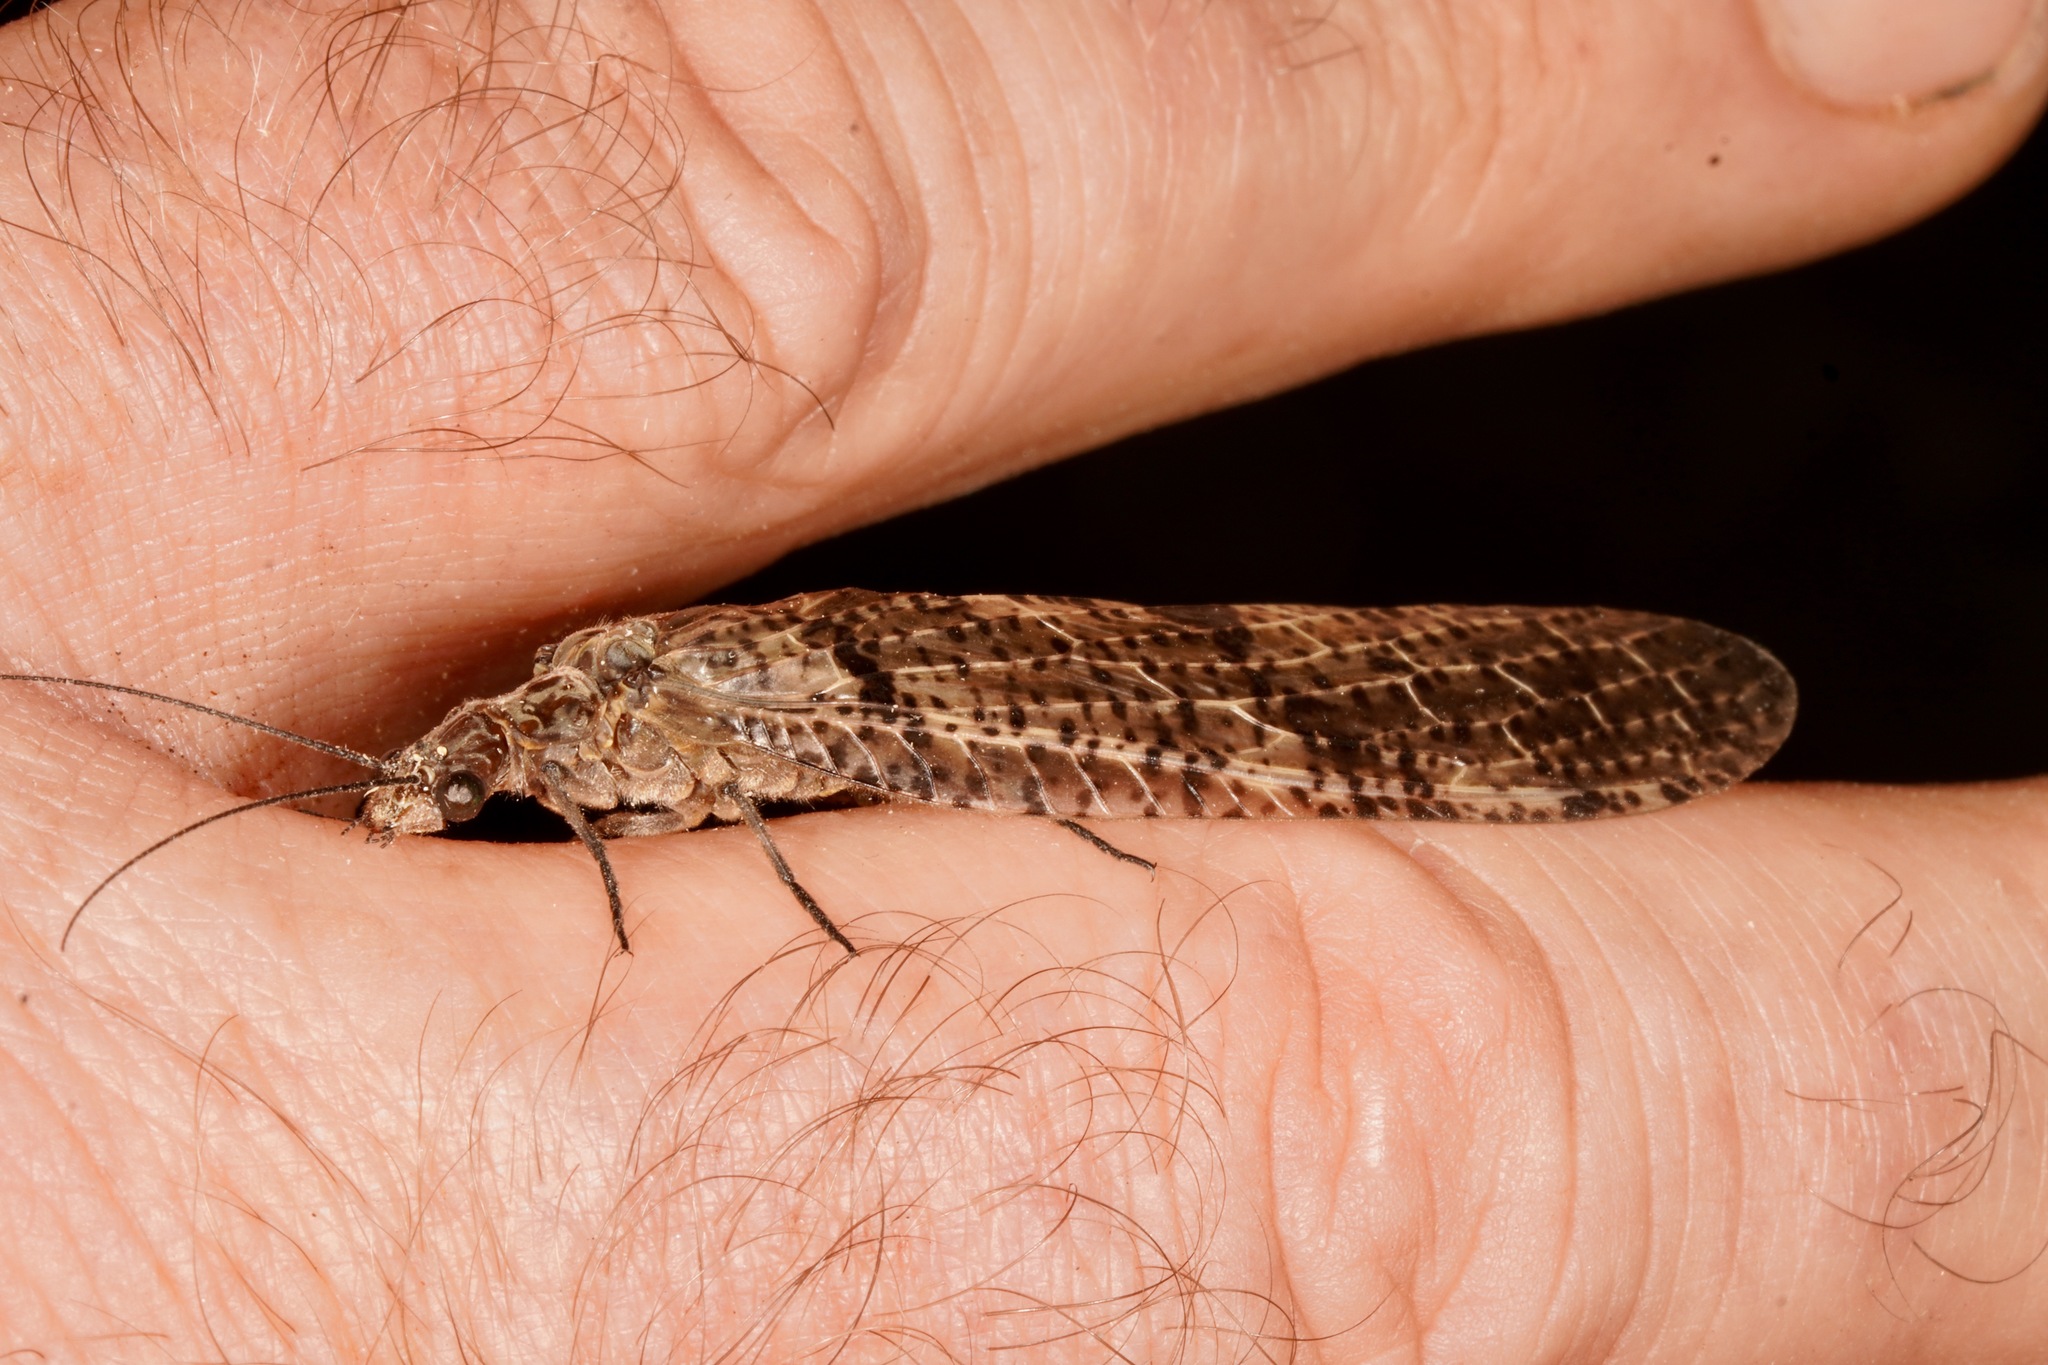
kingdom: Animalia
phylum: Arthropoda
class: Insecta
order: Megaloptera
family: Corydalidae
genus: Archichauliodes
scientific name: Archichauliodes diversus
